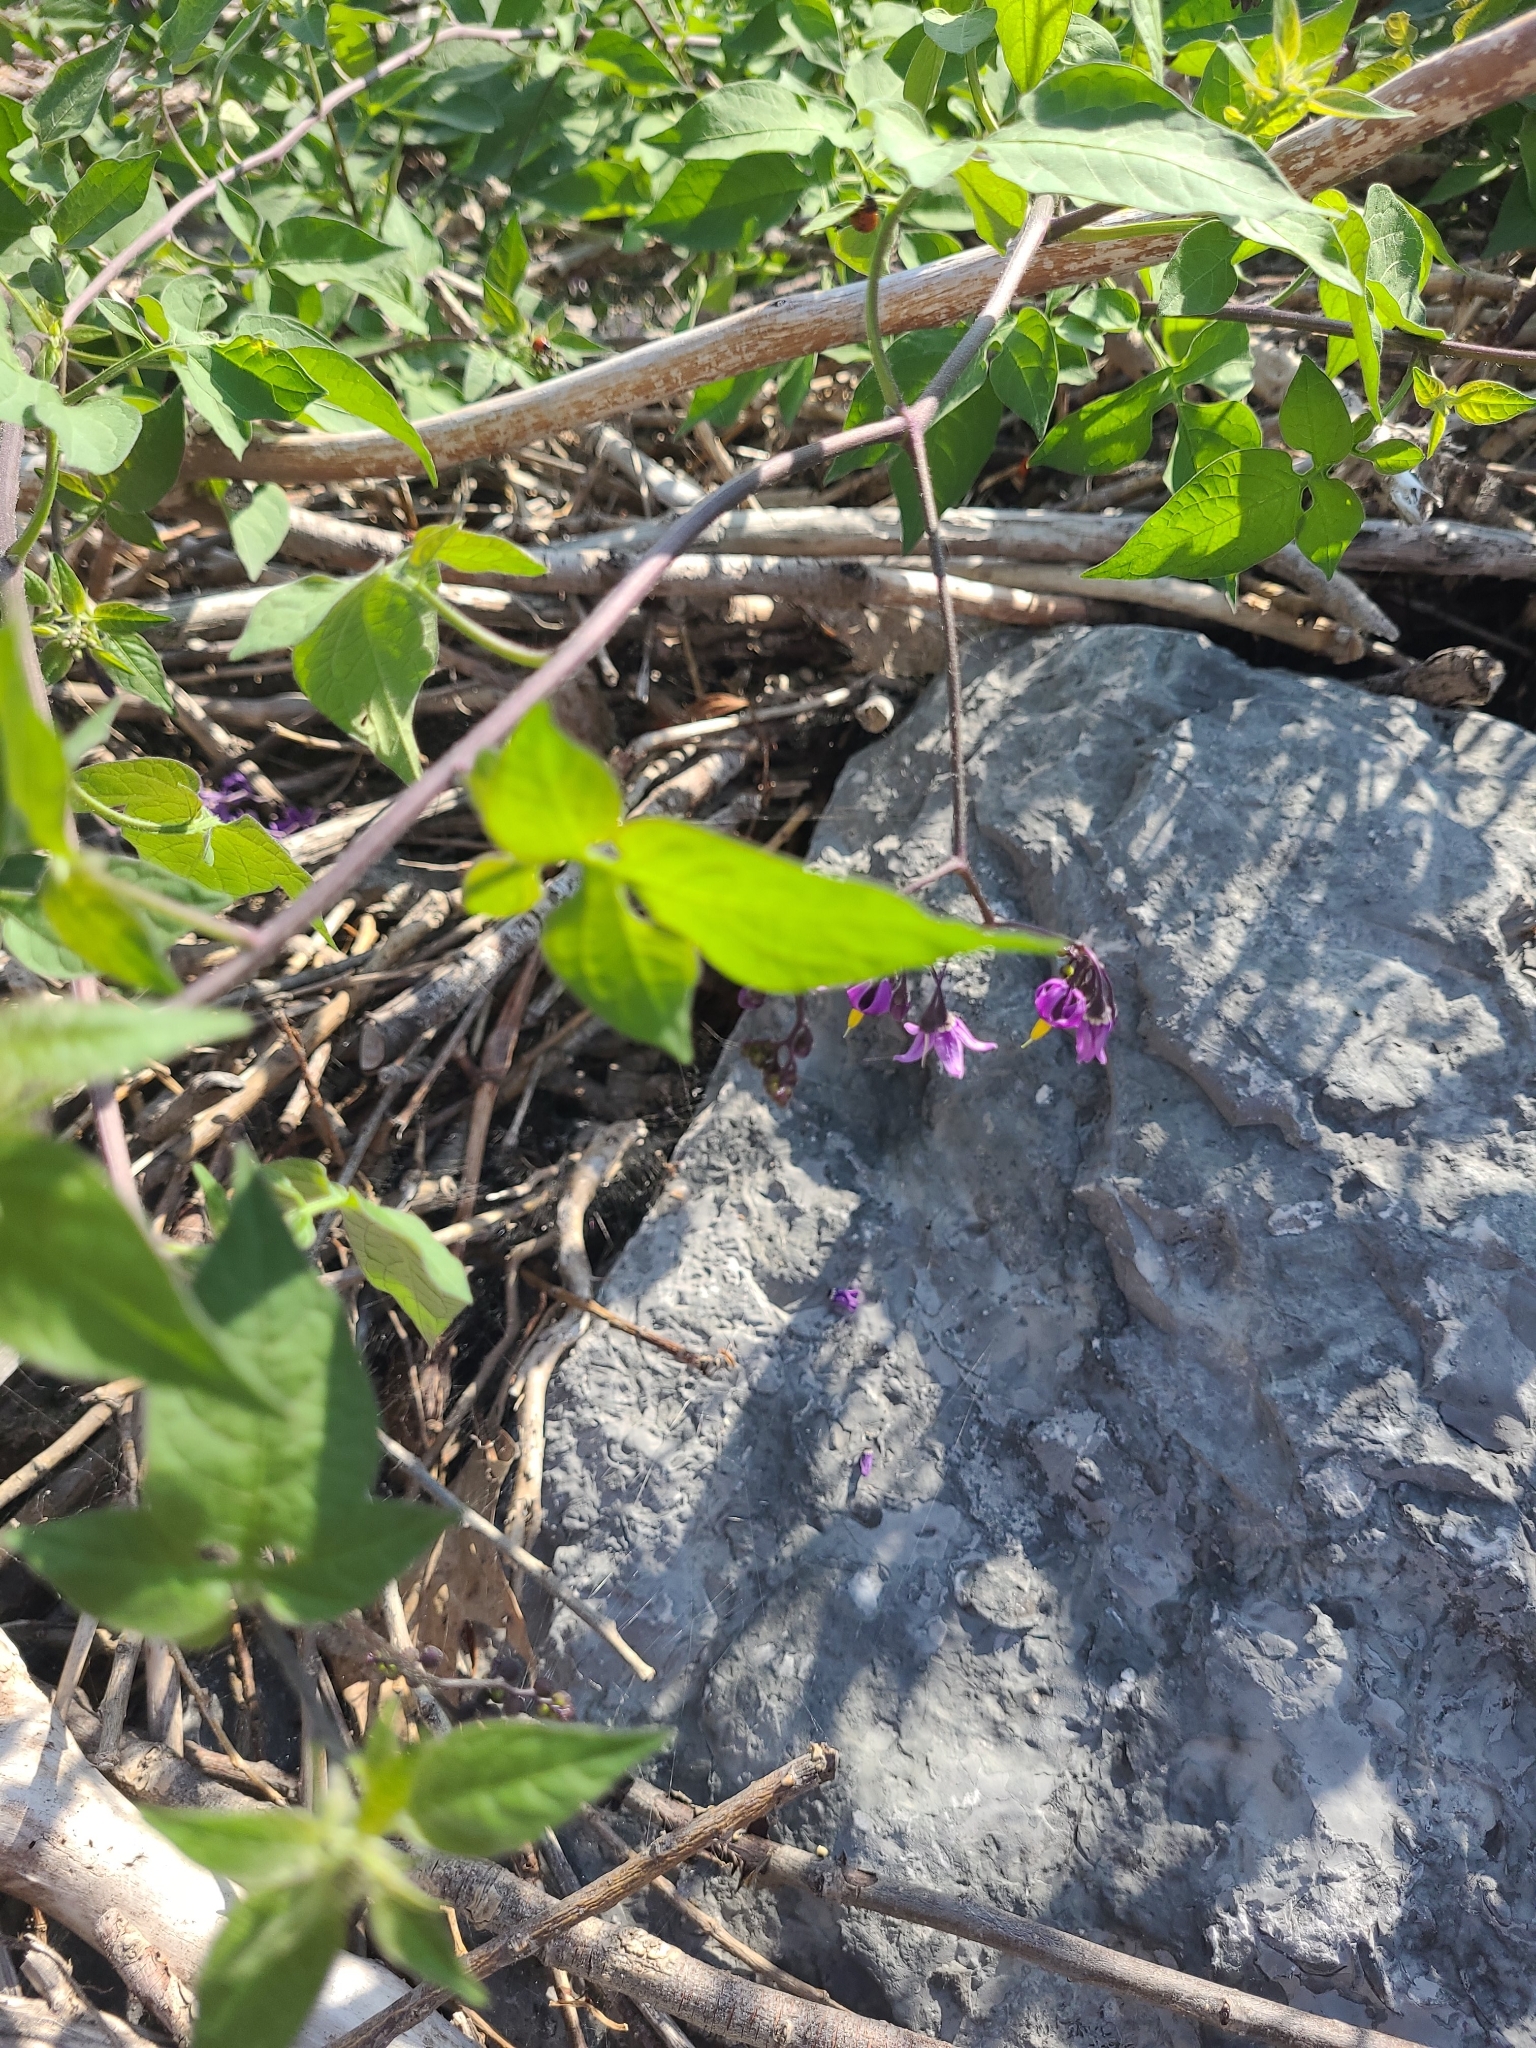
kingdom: Plantae
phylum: Tracheophyta
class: Magnoliopsida
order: Solanales
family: Solanaceae
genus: Solanum
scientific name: Solanum dulcamara
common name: Climbing nightshade
